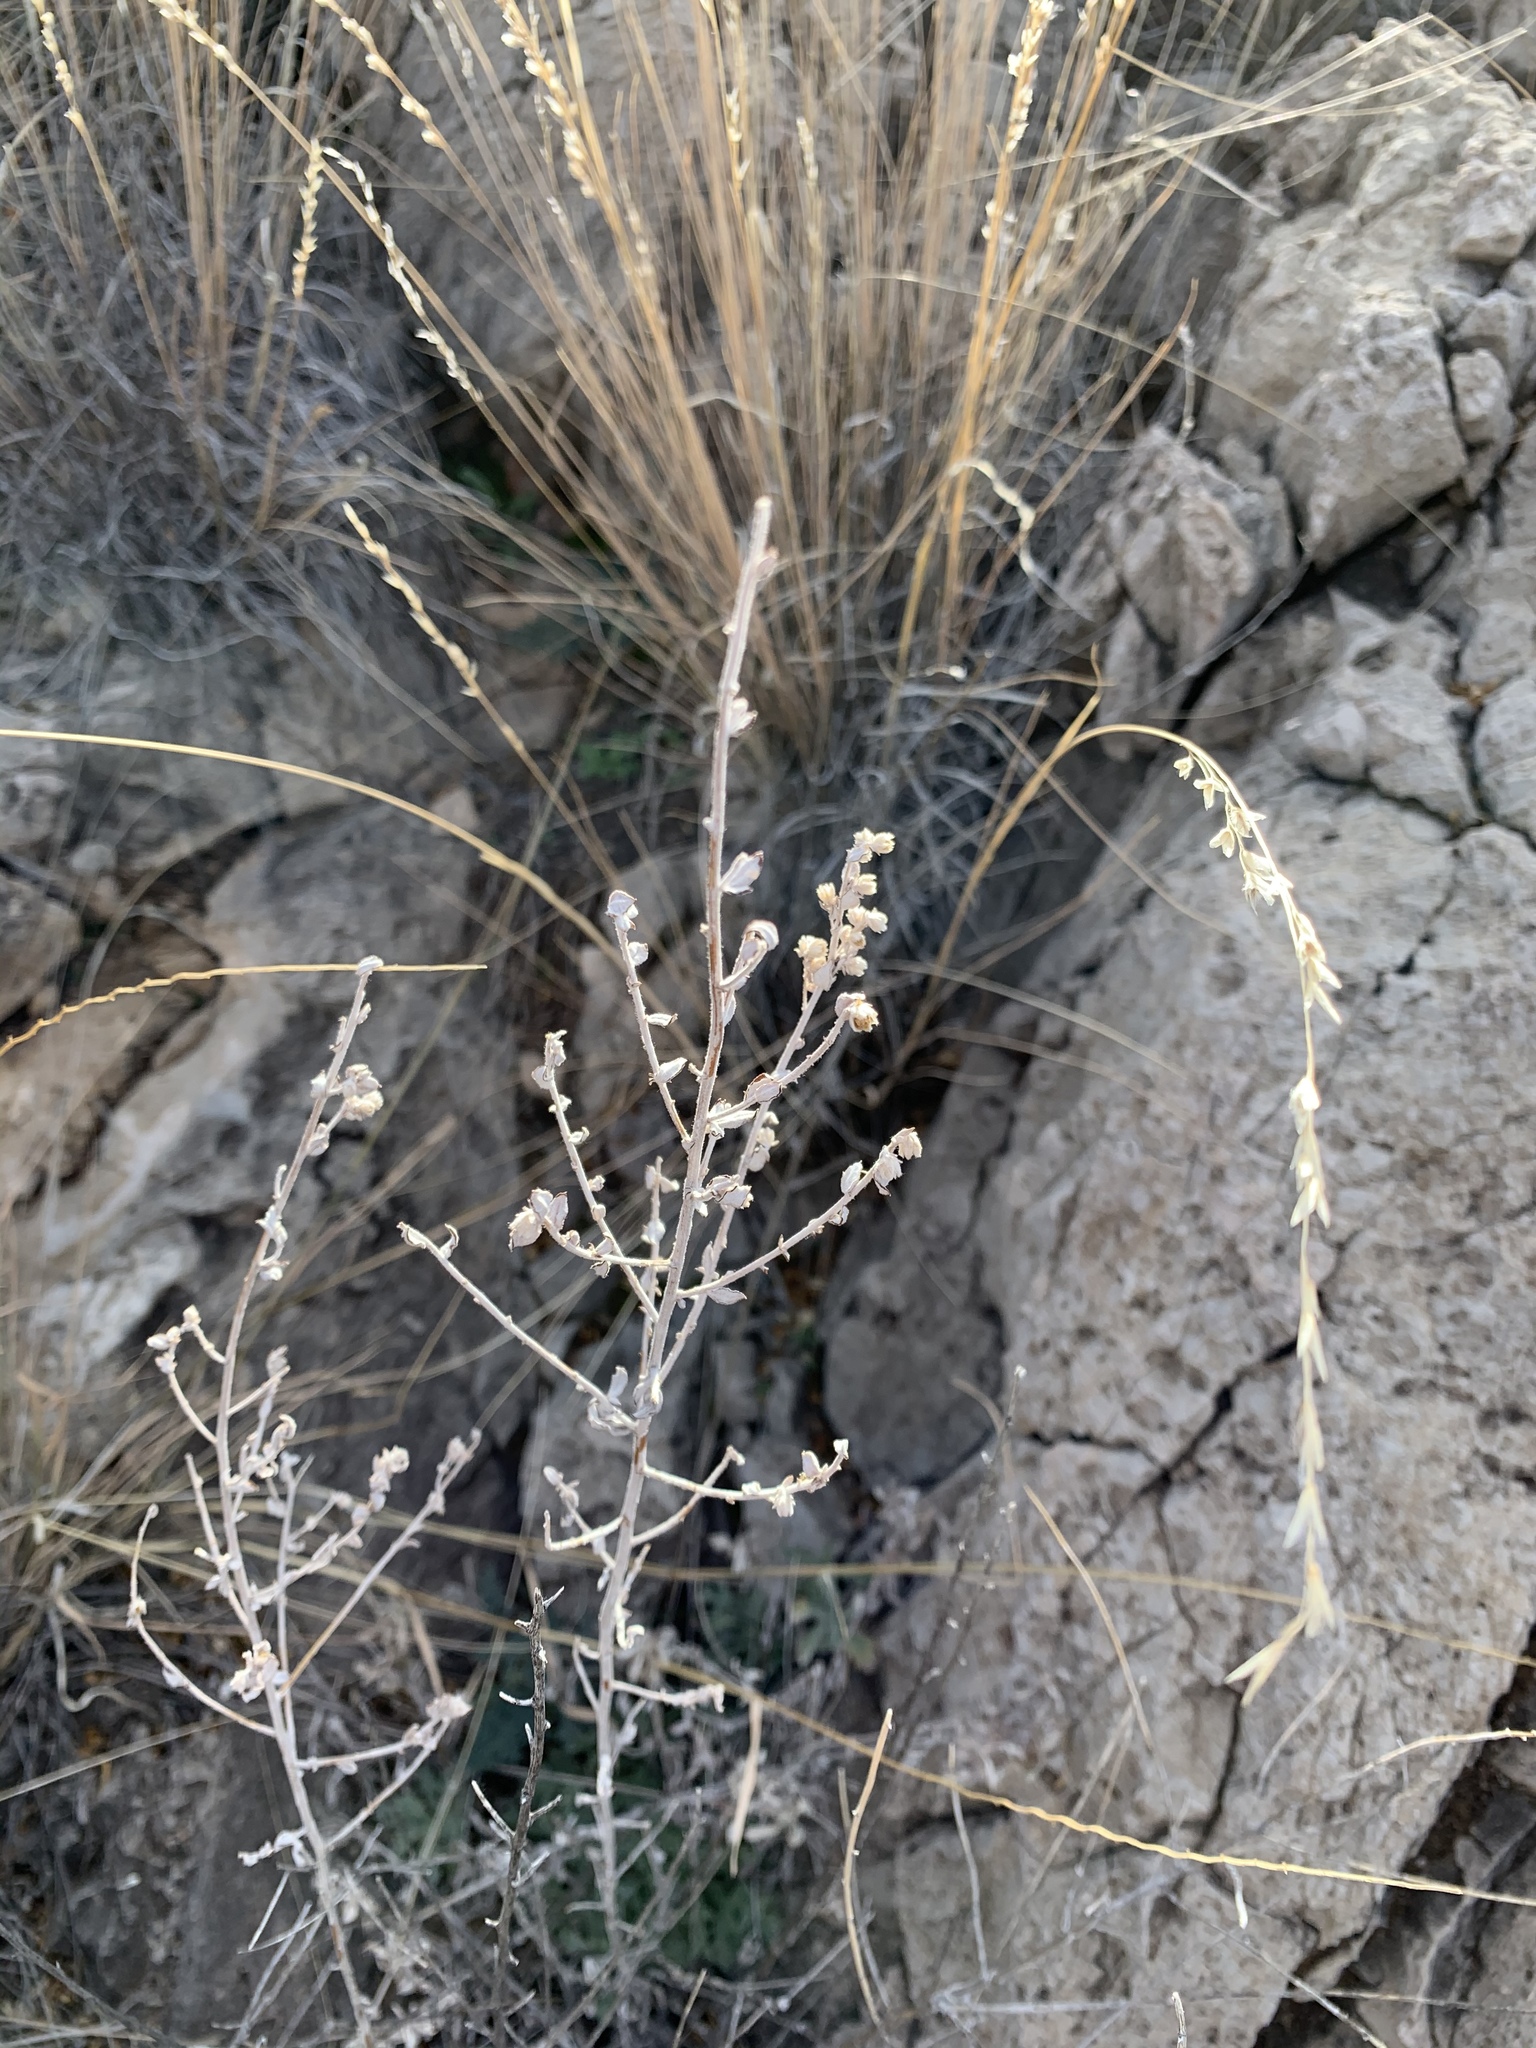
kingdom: Plantae
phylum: Tracheophyta
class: Magnoliopsida
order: Asterales
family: Asteraceae
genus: Artemisia
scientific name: Artemisia ludoviciana
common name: Western mugwort
